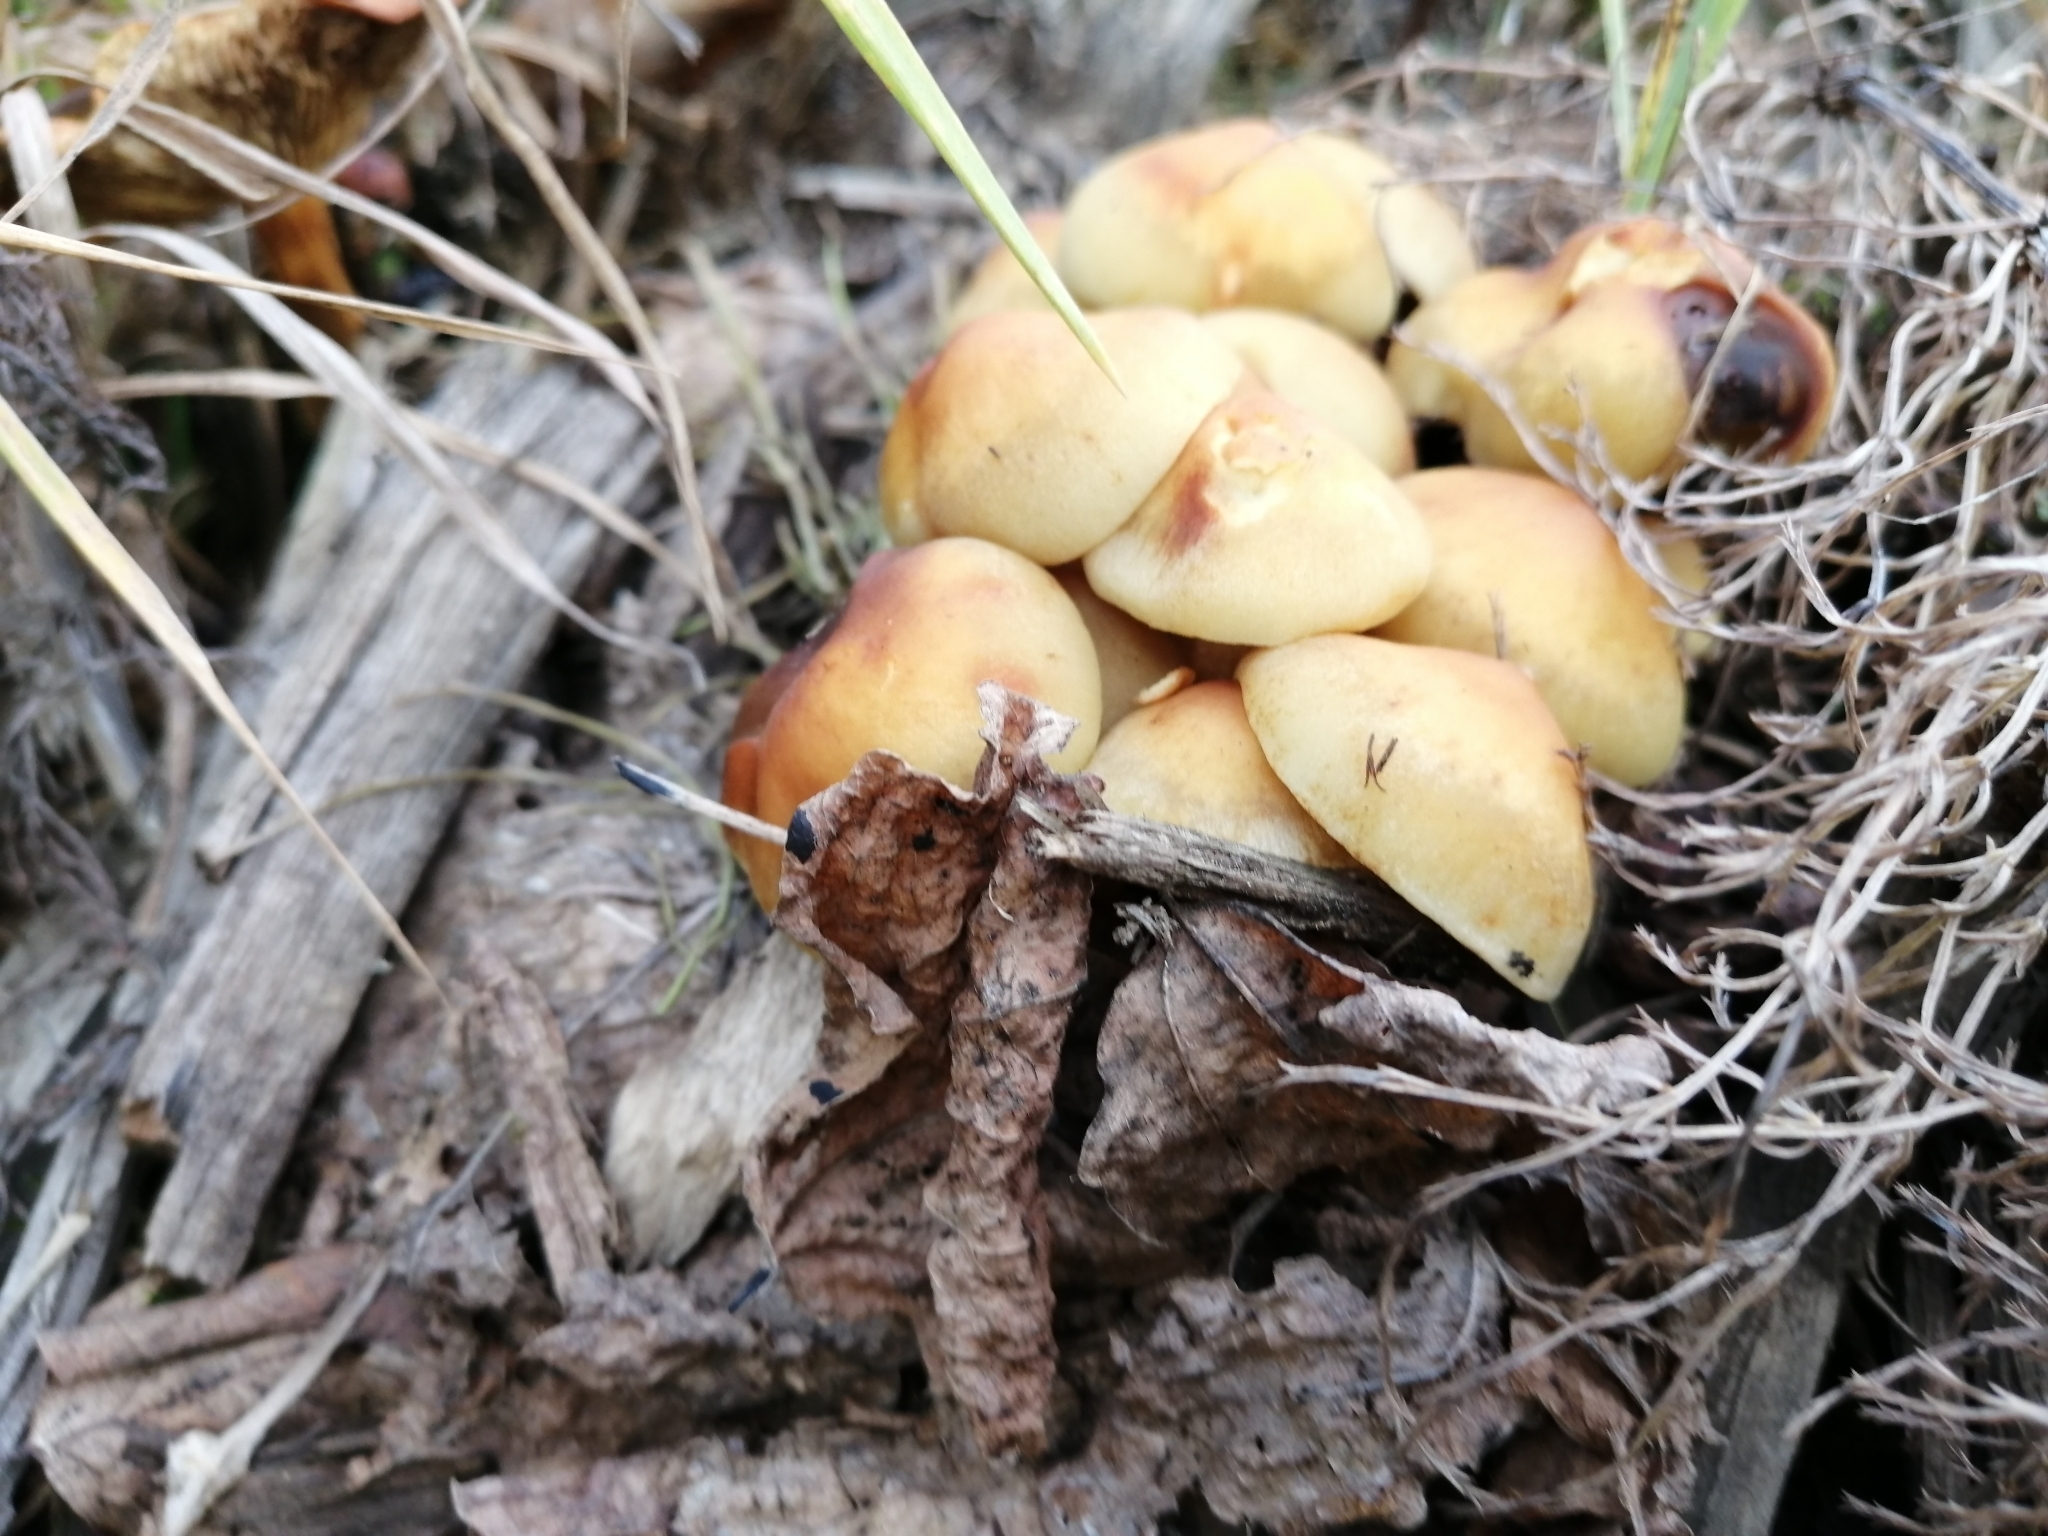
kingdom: Fungi
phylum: Basidiomycota
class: Agaricomycetes
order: Agaricales
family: Strophariaceae
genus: Hypholoma
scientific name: Hypholoma capnoides
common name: Conifer tuft
